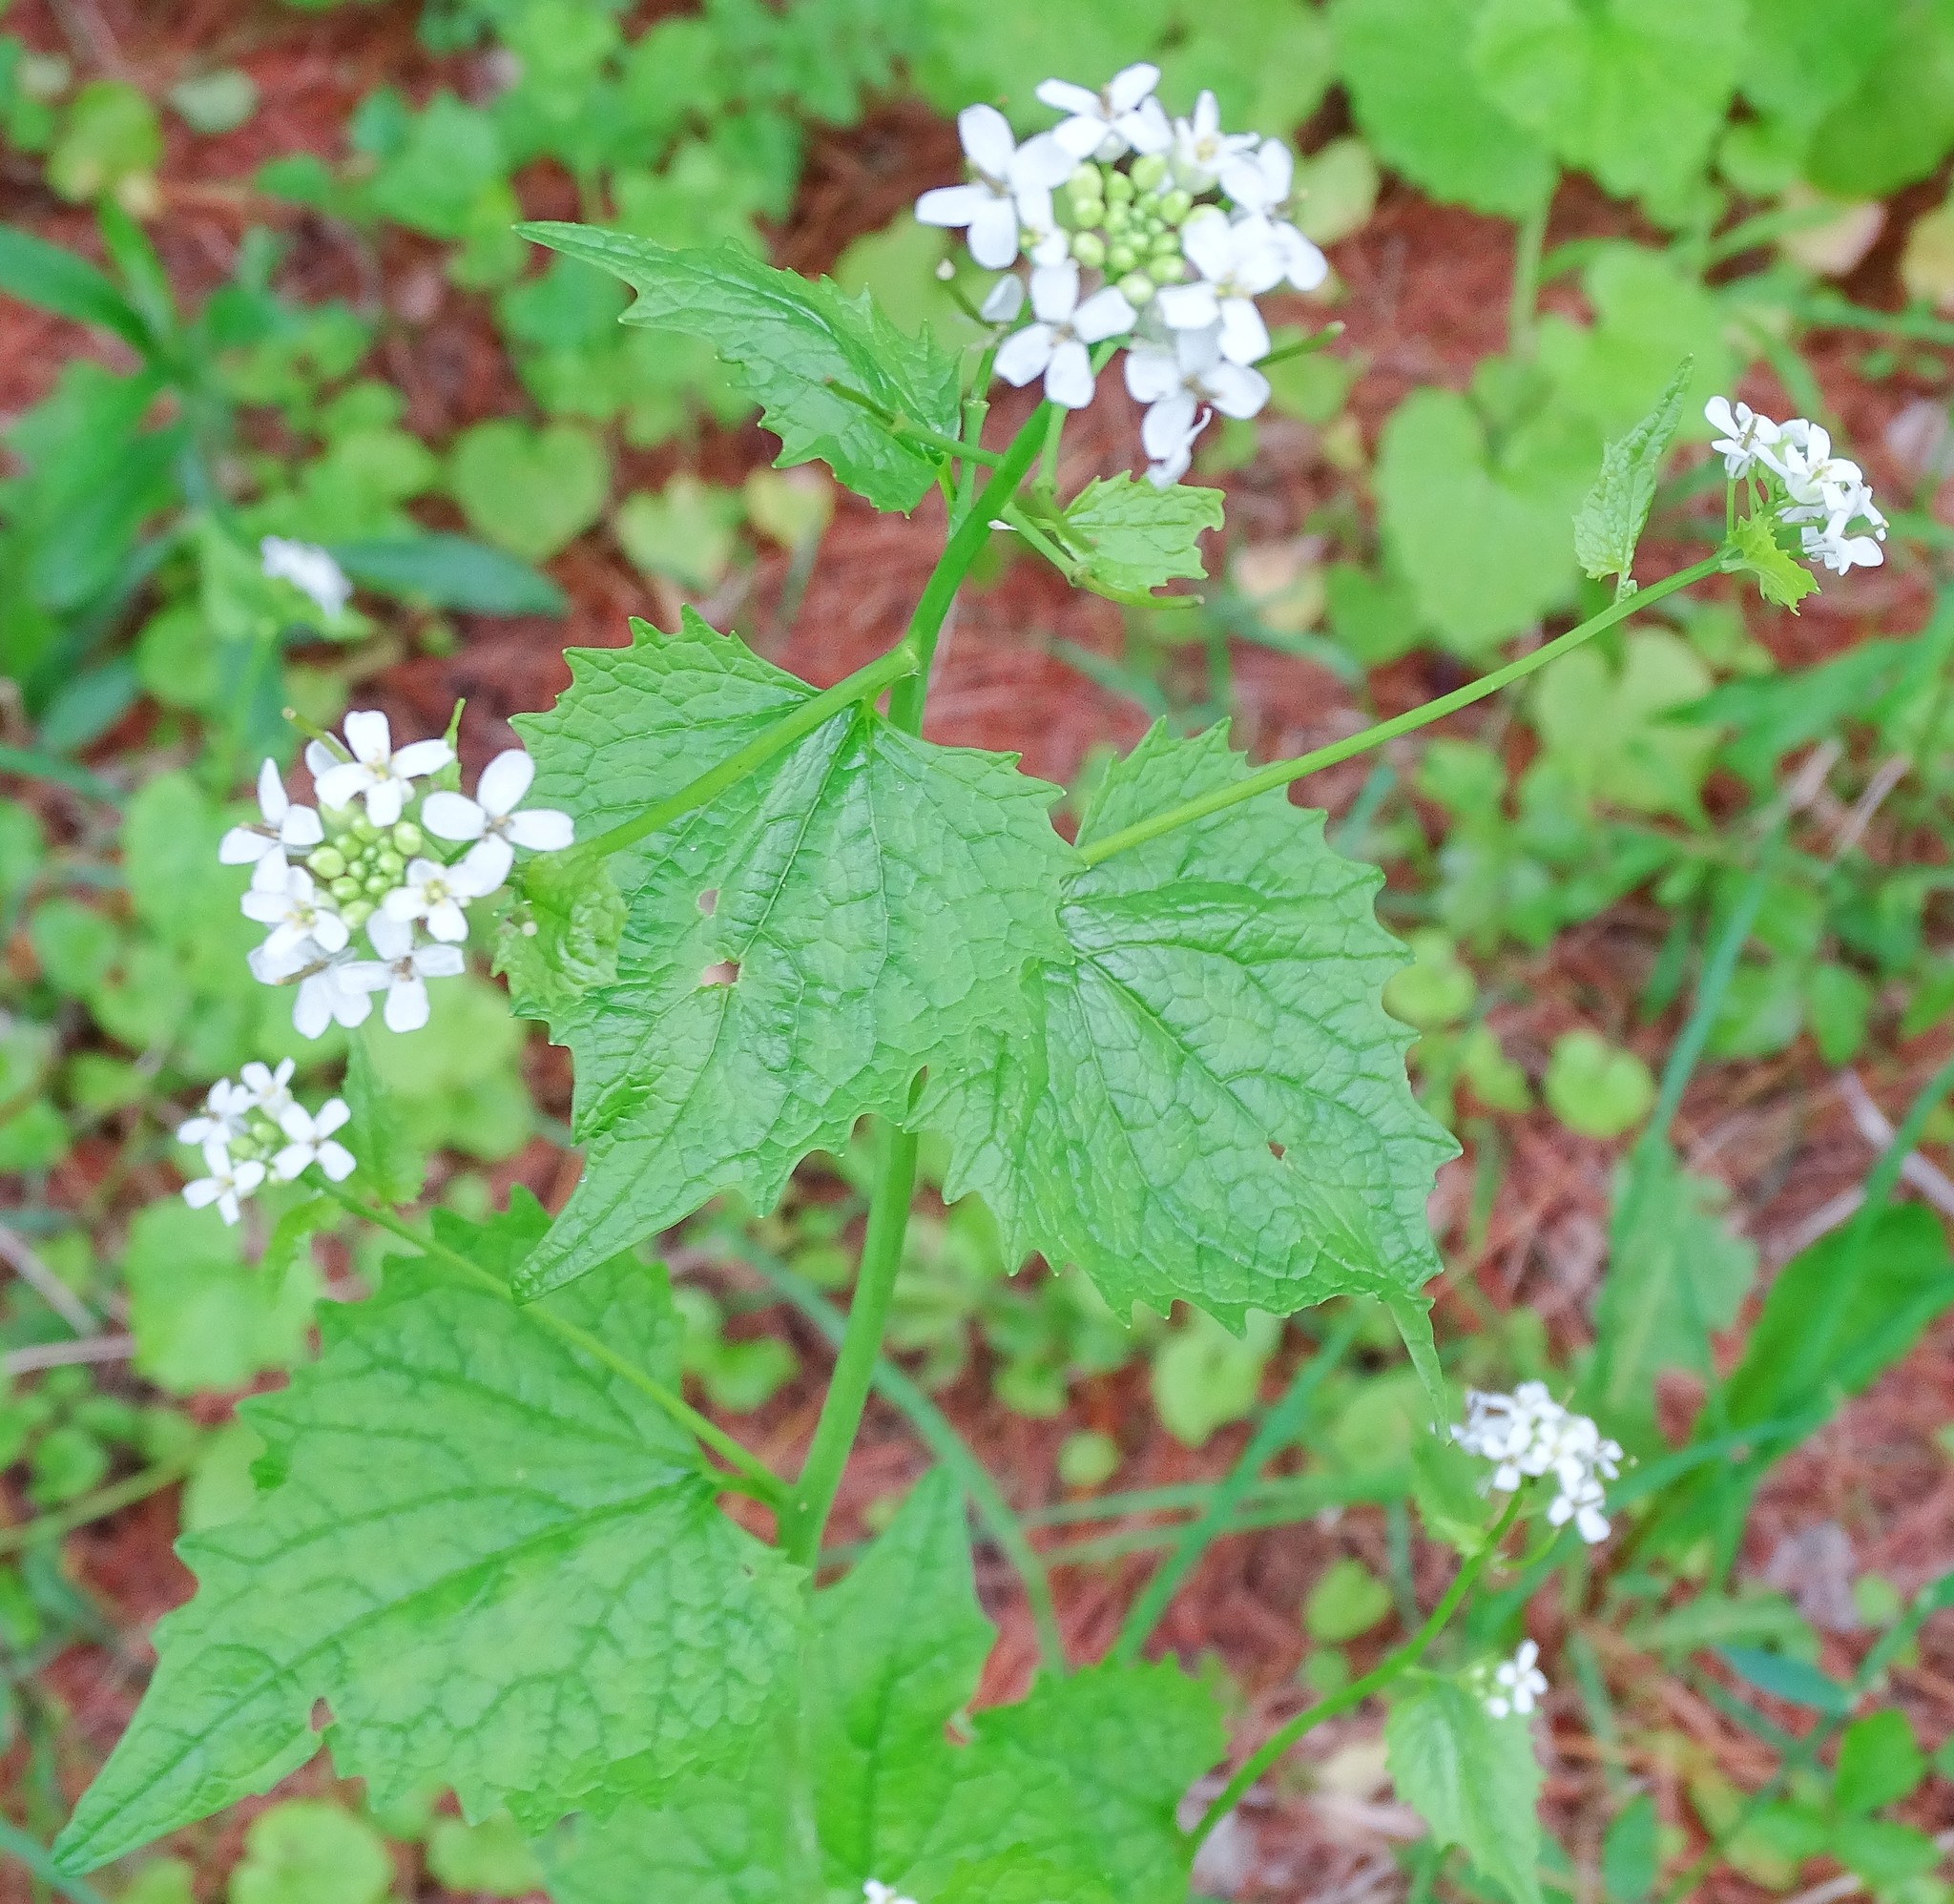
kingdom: Plantae
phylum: Tracheophyta
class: Magnoliopsida
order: Brassicales
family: Brassicaceae
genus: Alliaria
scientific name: Alliaria petiolata
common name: Garlic mustard
